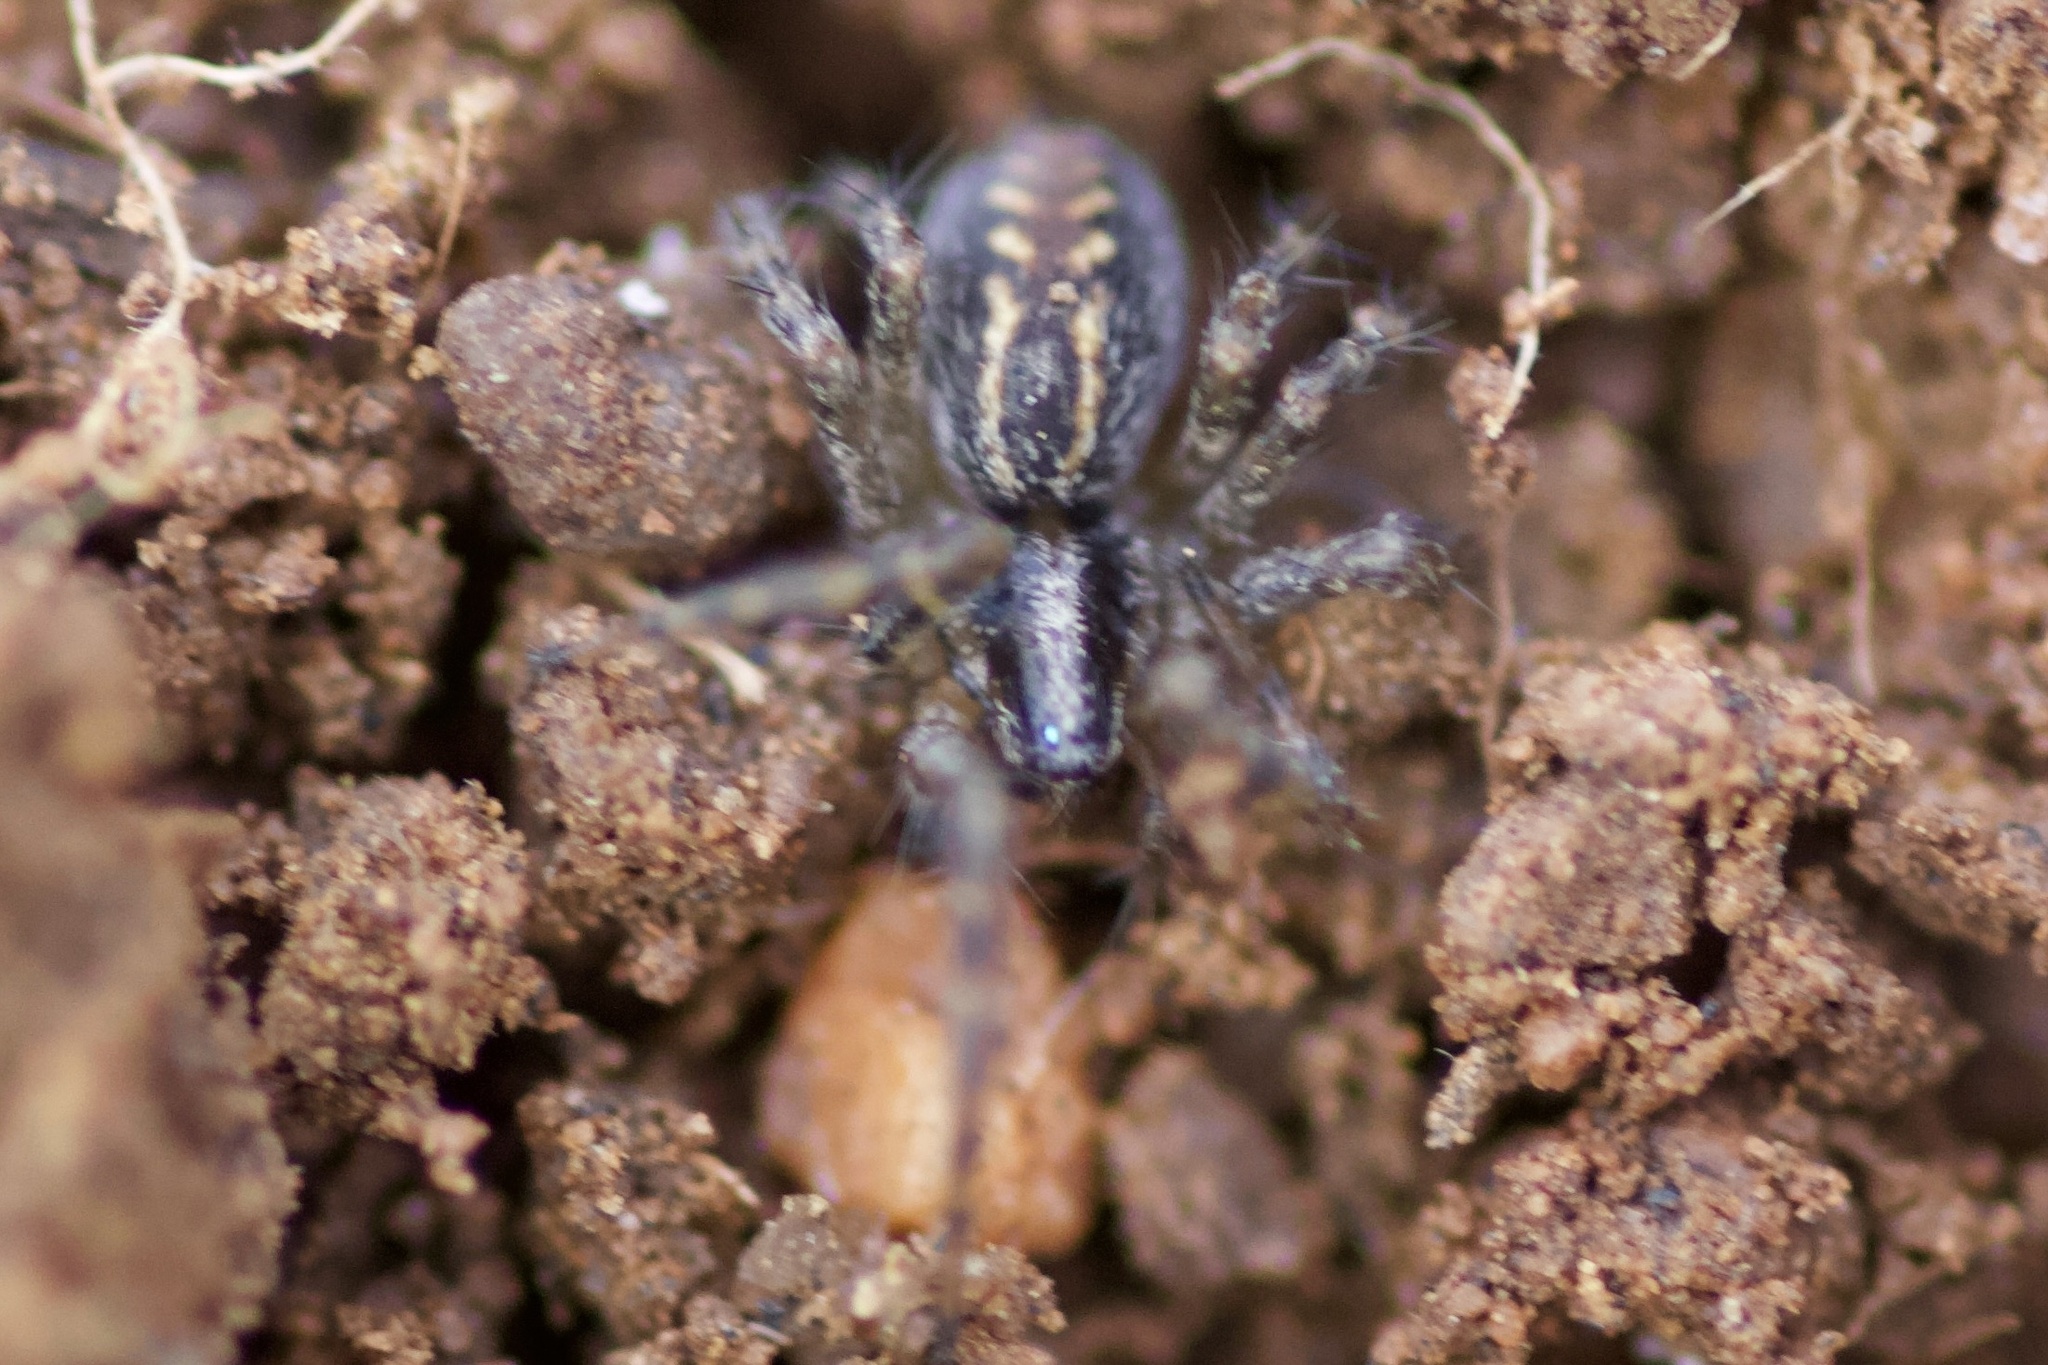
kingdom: Animalia
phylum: Arthropoda
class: Arachnida
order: Araneae
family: Agelenidae
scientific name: Agelenidae
